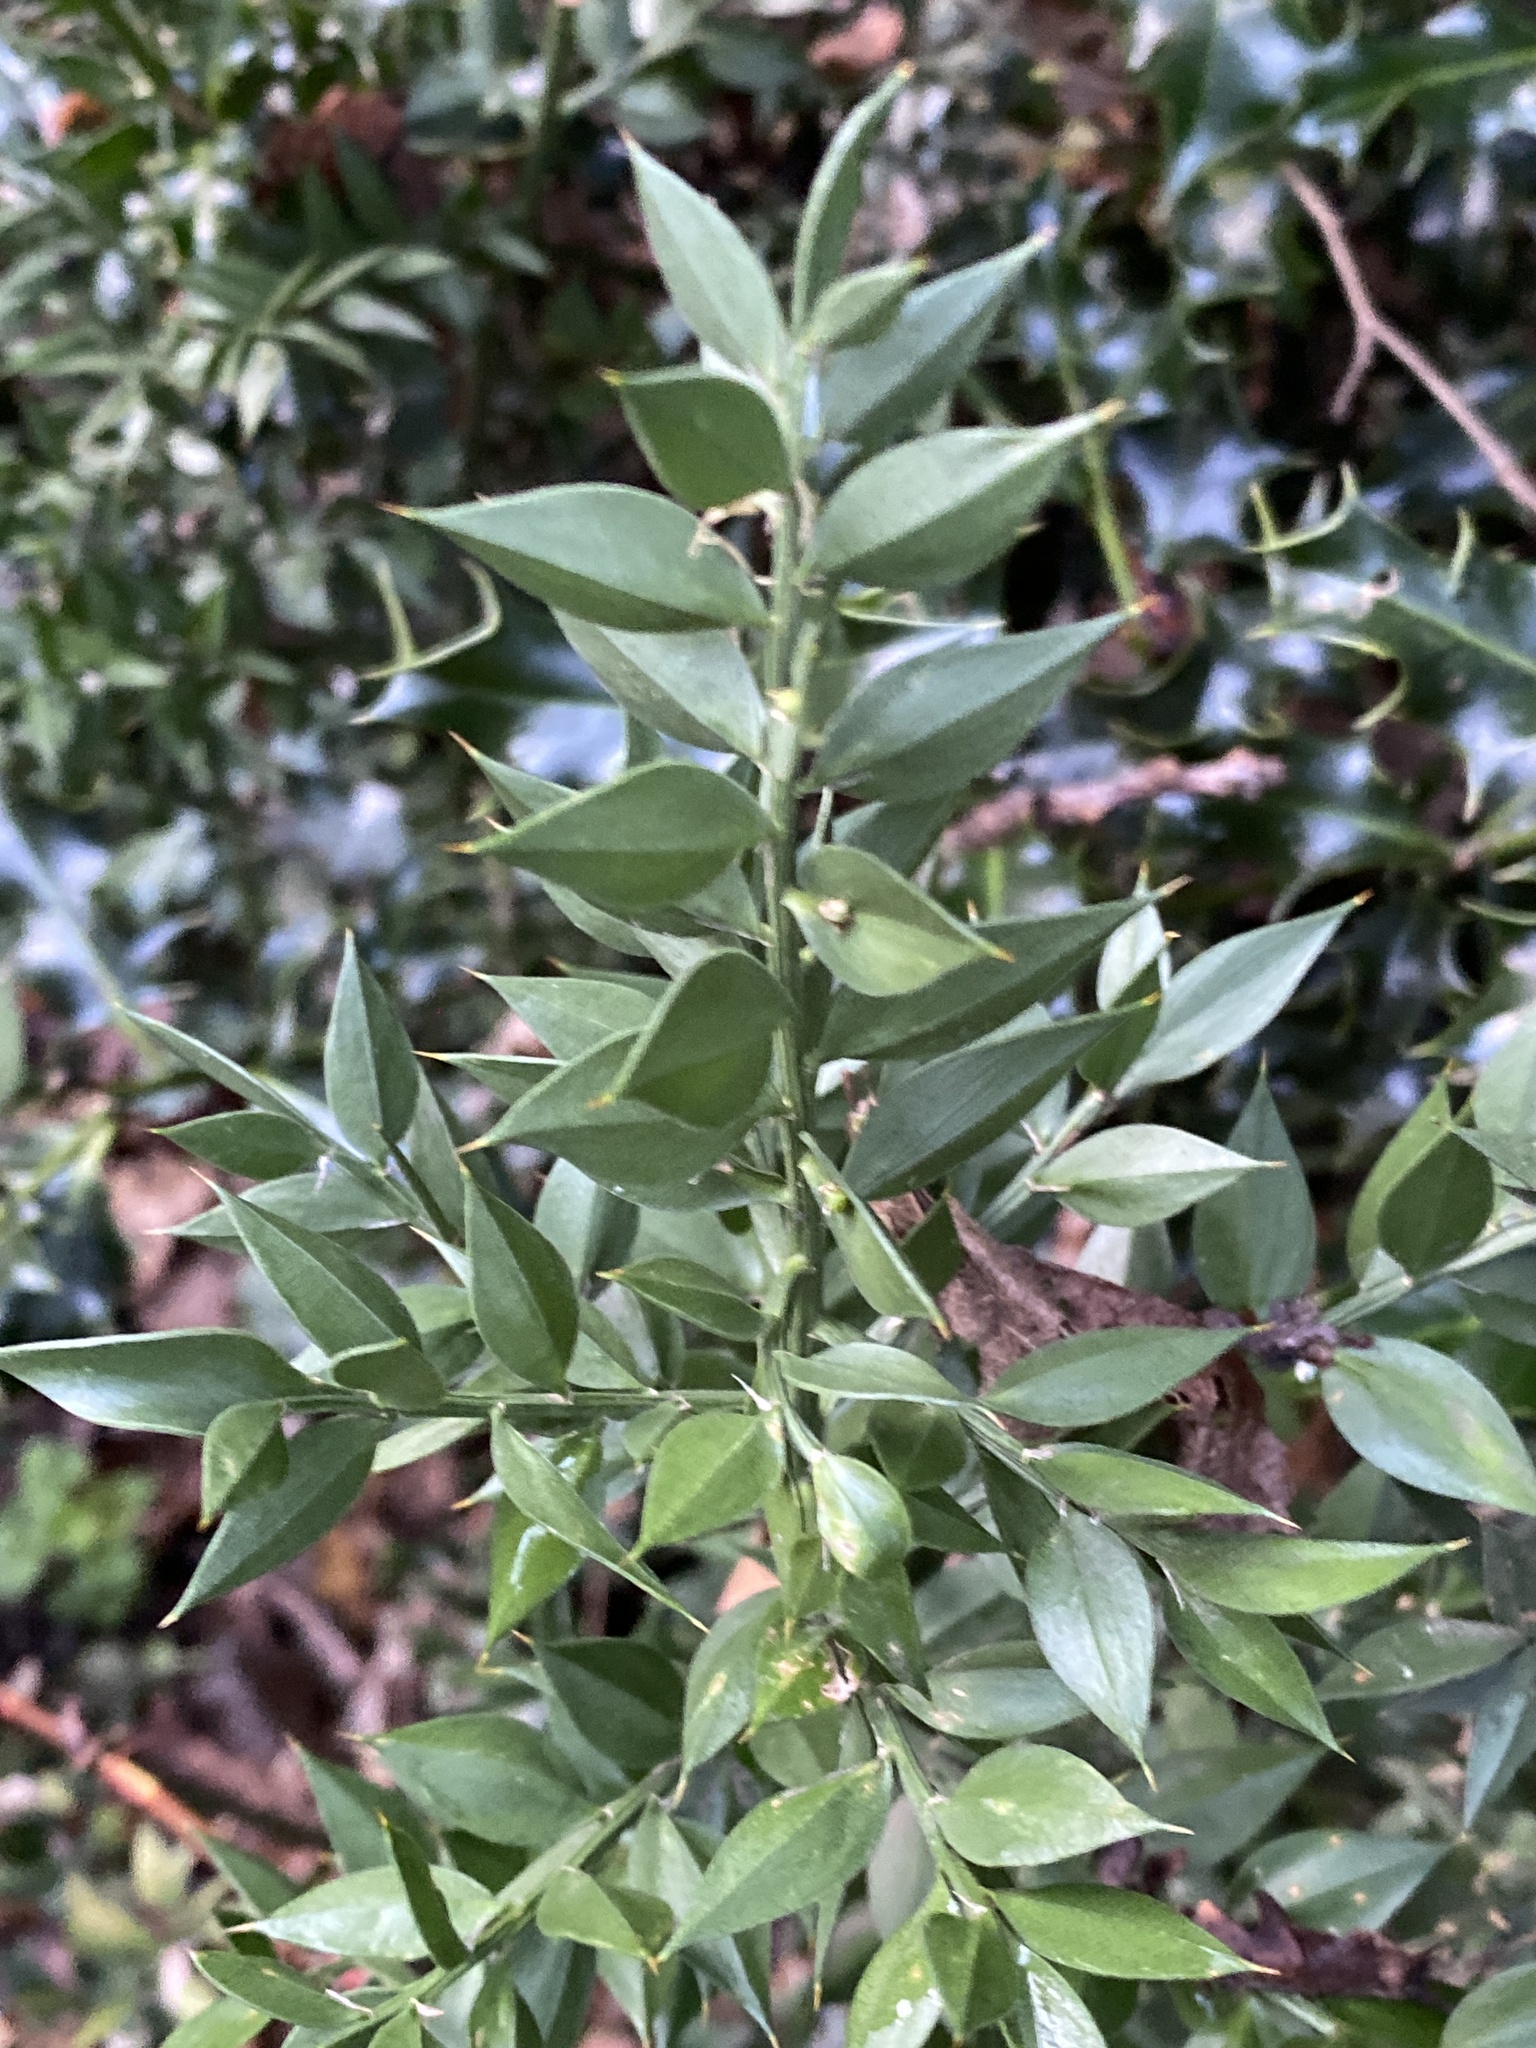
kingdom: Plantae
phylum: Tracheophyta
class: Liliopsida
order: Asparagales
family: Asparagaceae
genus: Ruscus
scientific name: Ruscus aculeatus
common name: Butcher's-broom
